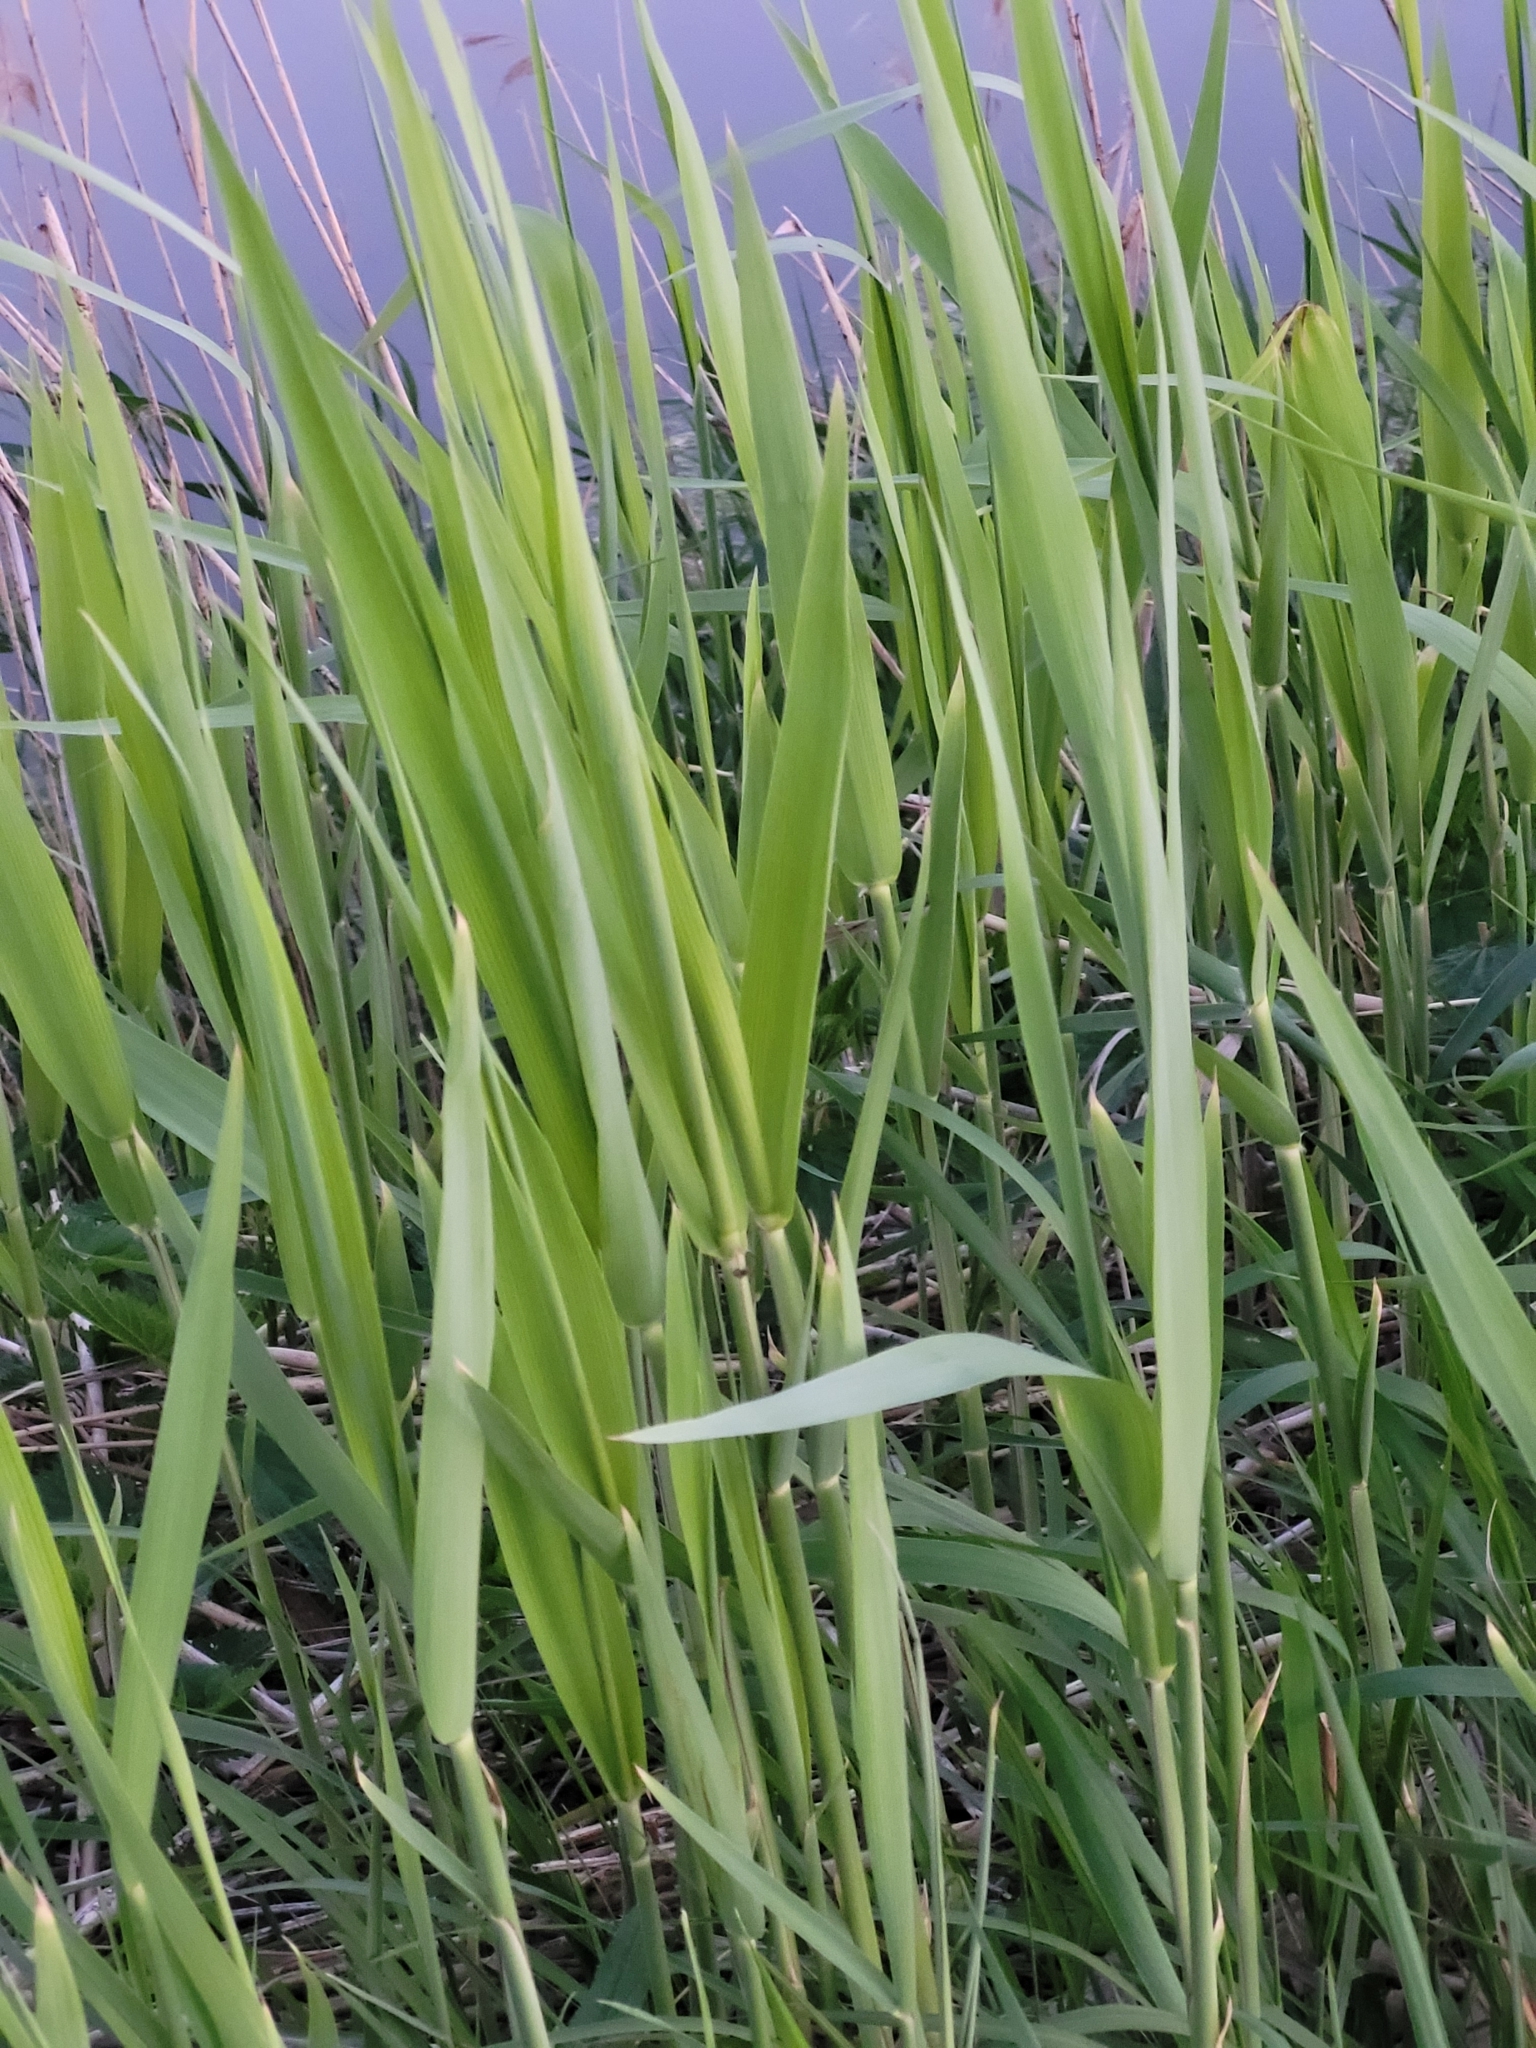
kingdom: Plantae
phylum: Tracheophyta
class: Liliopsida
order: Poales
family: Poaceae
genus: Phragmites
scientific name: Phragmites australis
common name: Common reed
